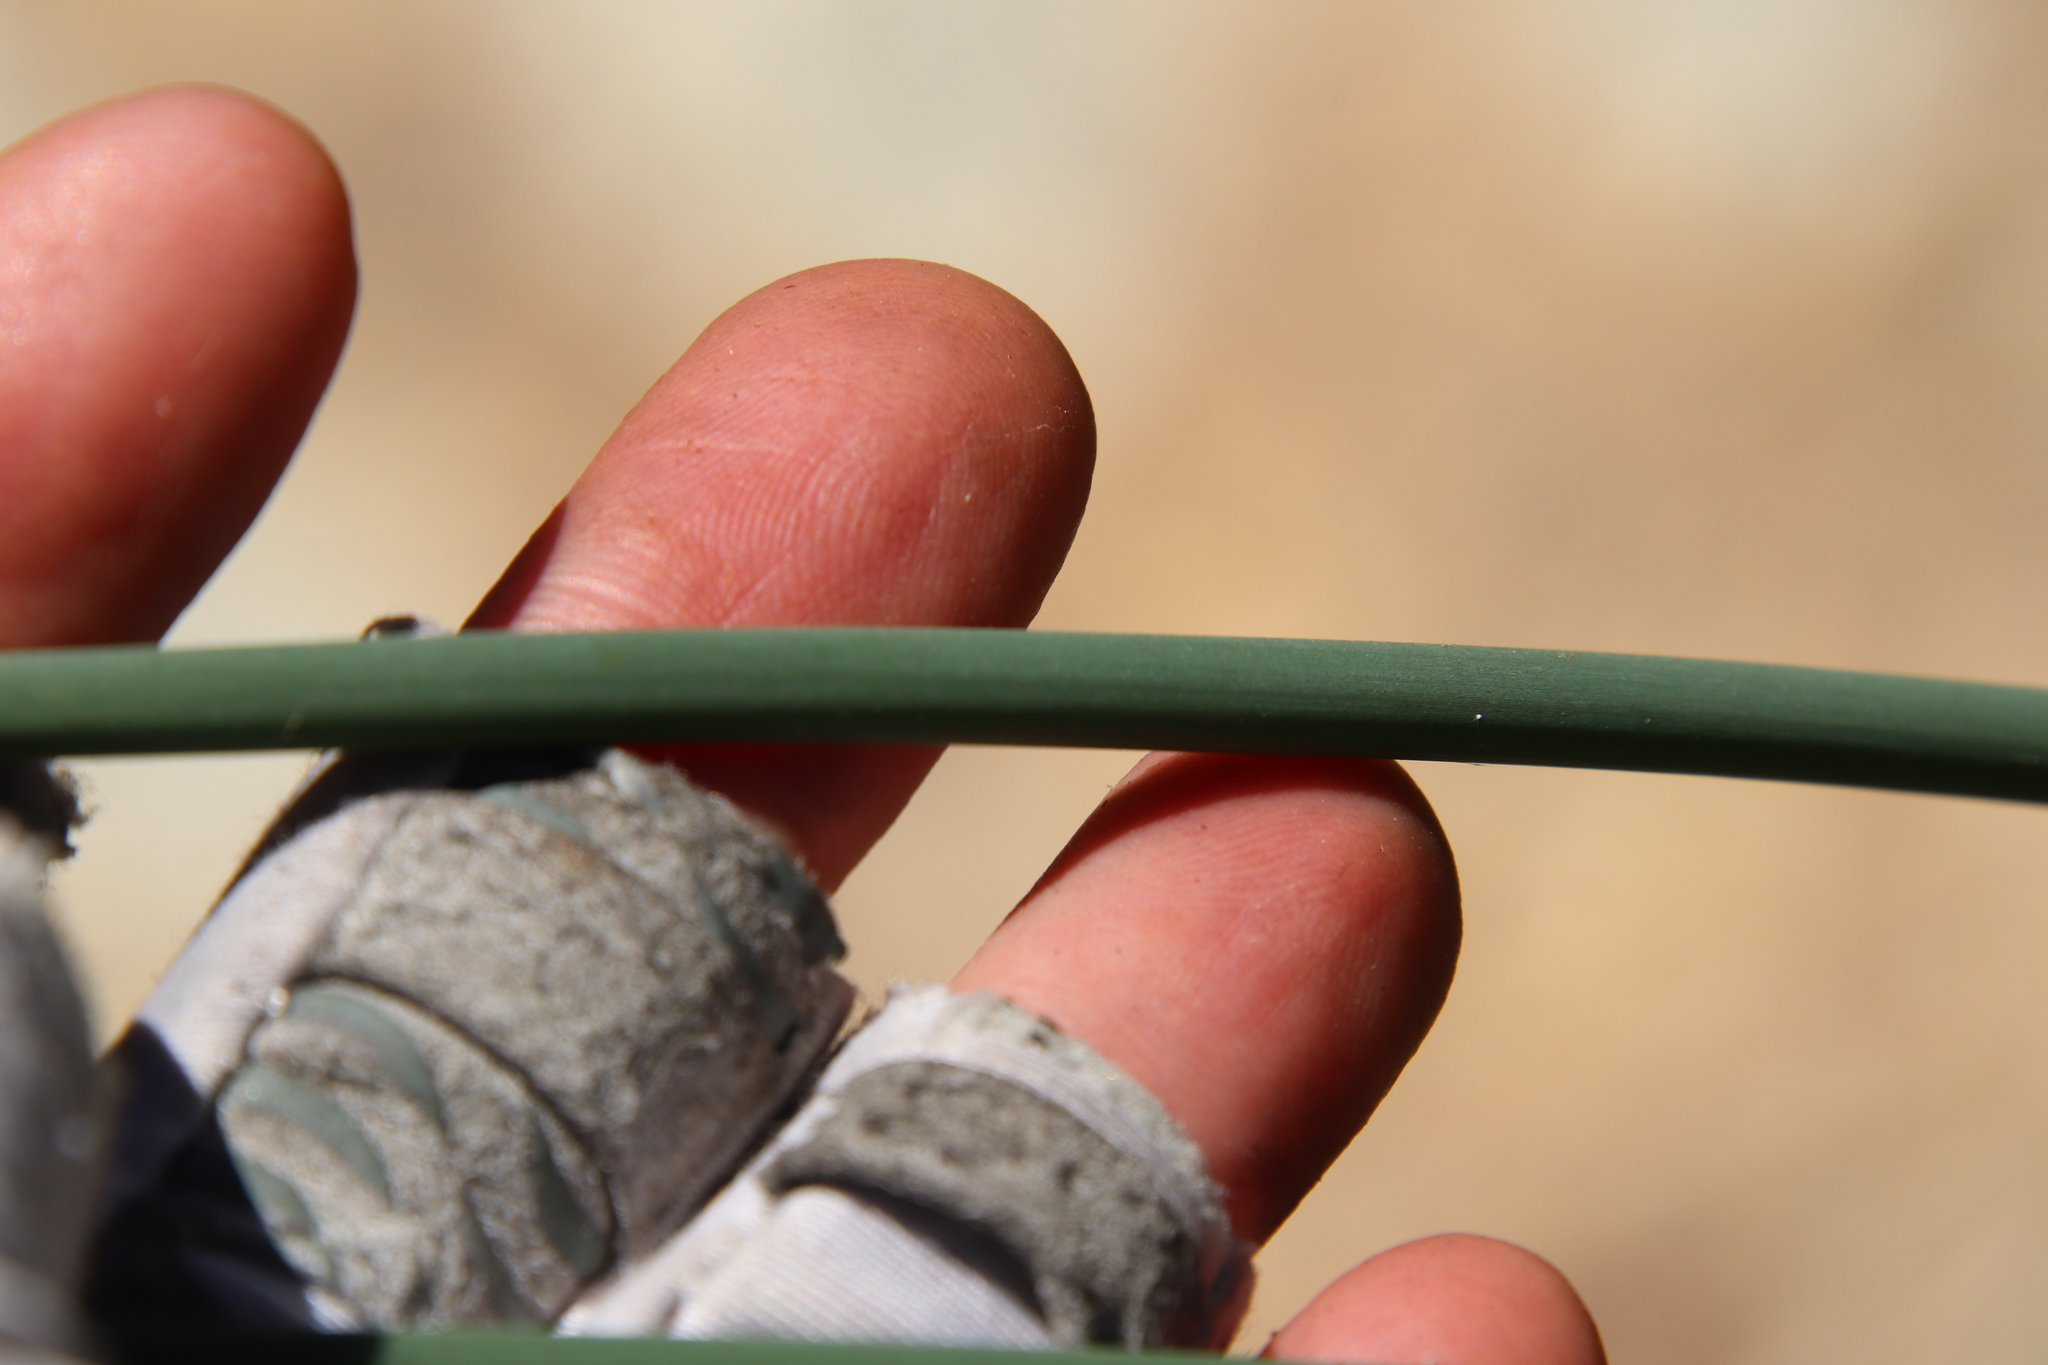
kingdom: Plantae
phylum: Tracheophyta
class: Liliopsida
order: Poales
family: Cyperaceae
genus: Schoenoplectus
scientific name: Schoenoplectus acutus
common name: Hardstem bulrush
